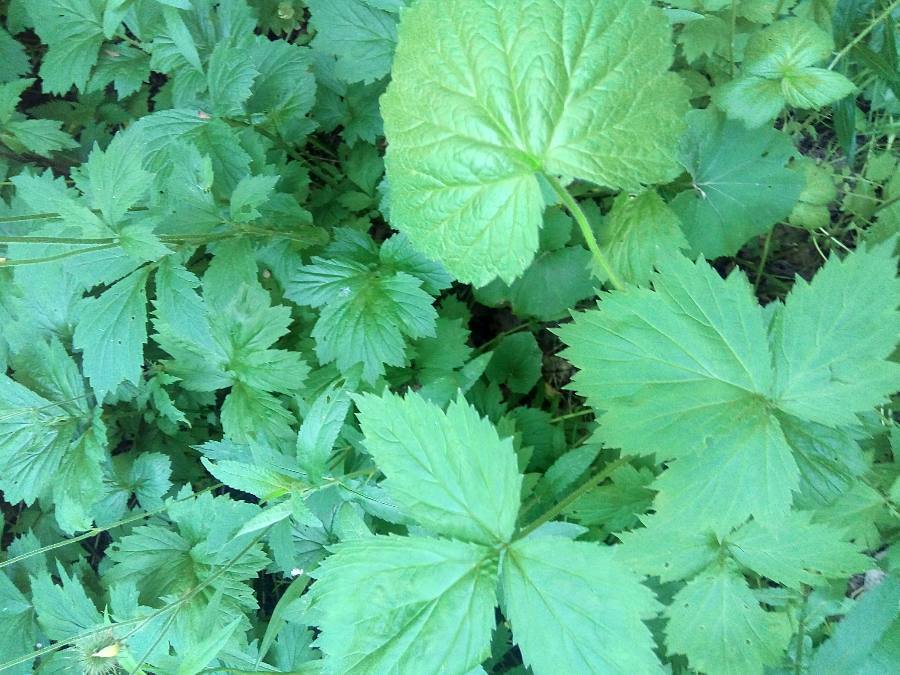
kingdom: Plantae
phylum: Tracheophyta
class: Magnoliopsida
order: Rosales
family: Rosaceae
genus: Geum
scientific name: Geum urbanum
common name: Wood avens
